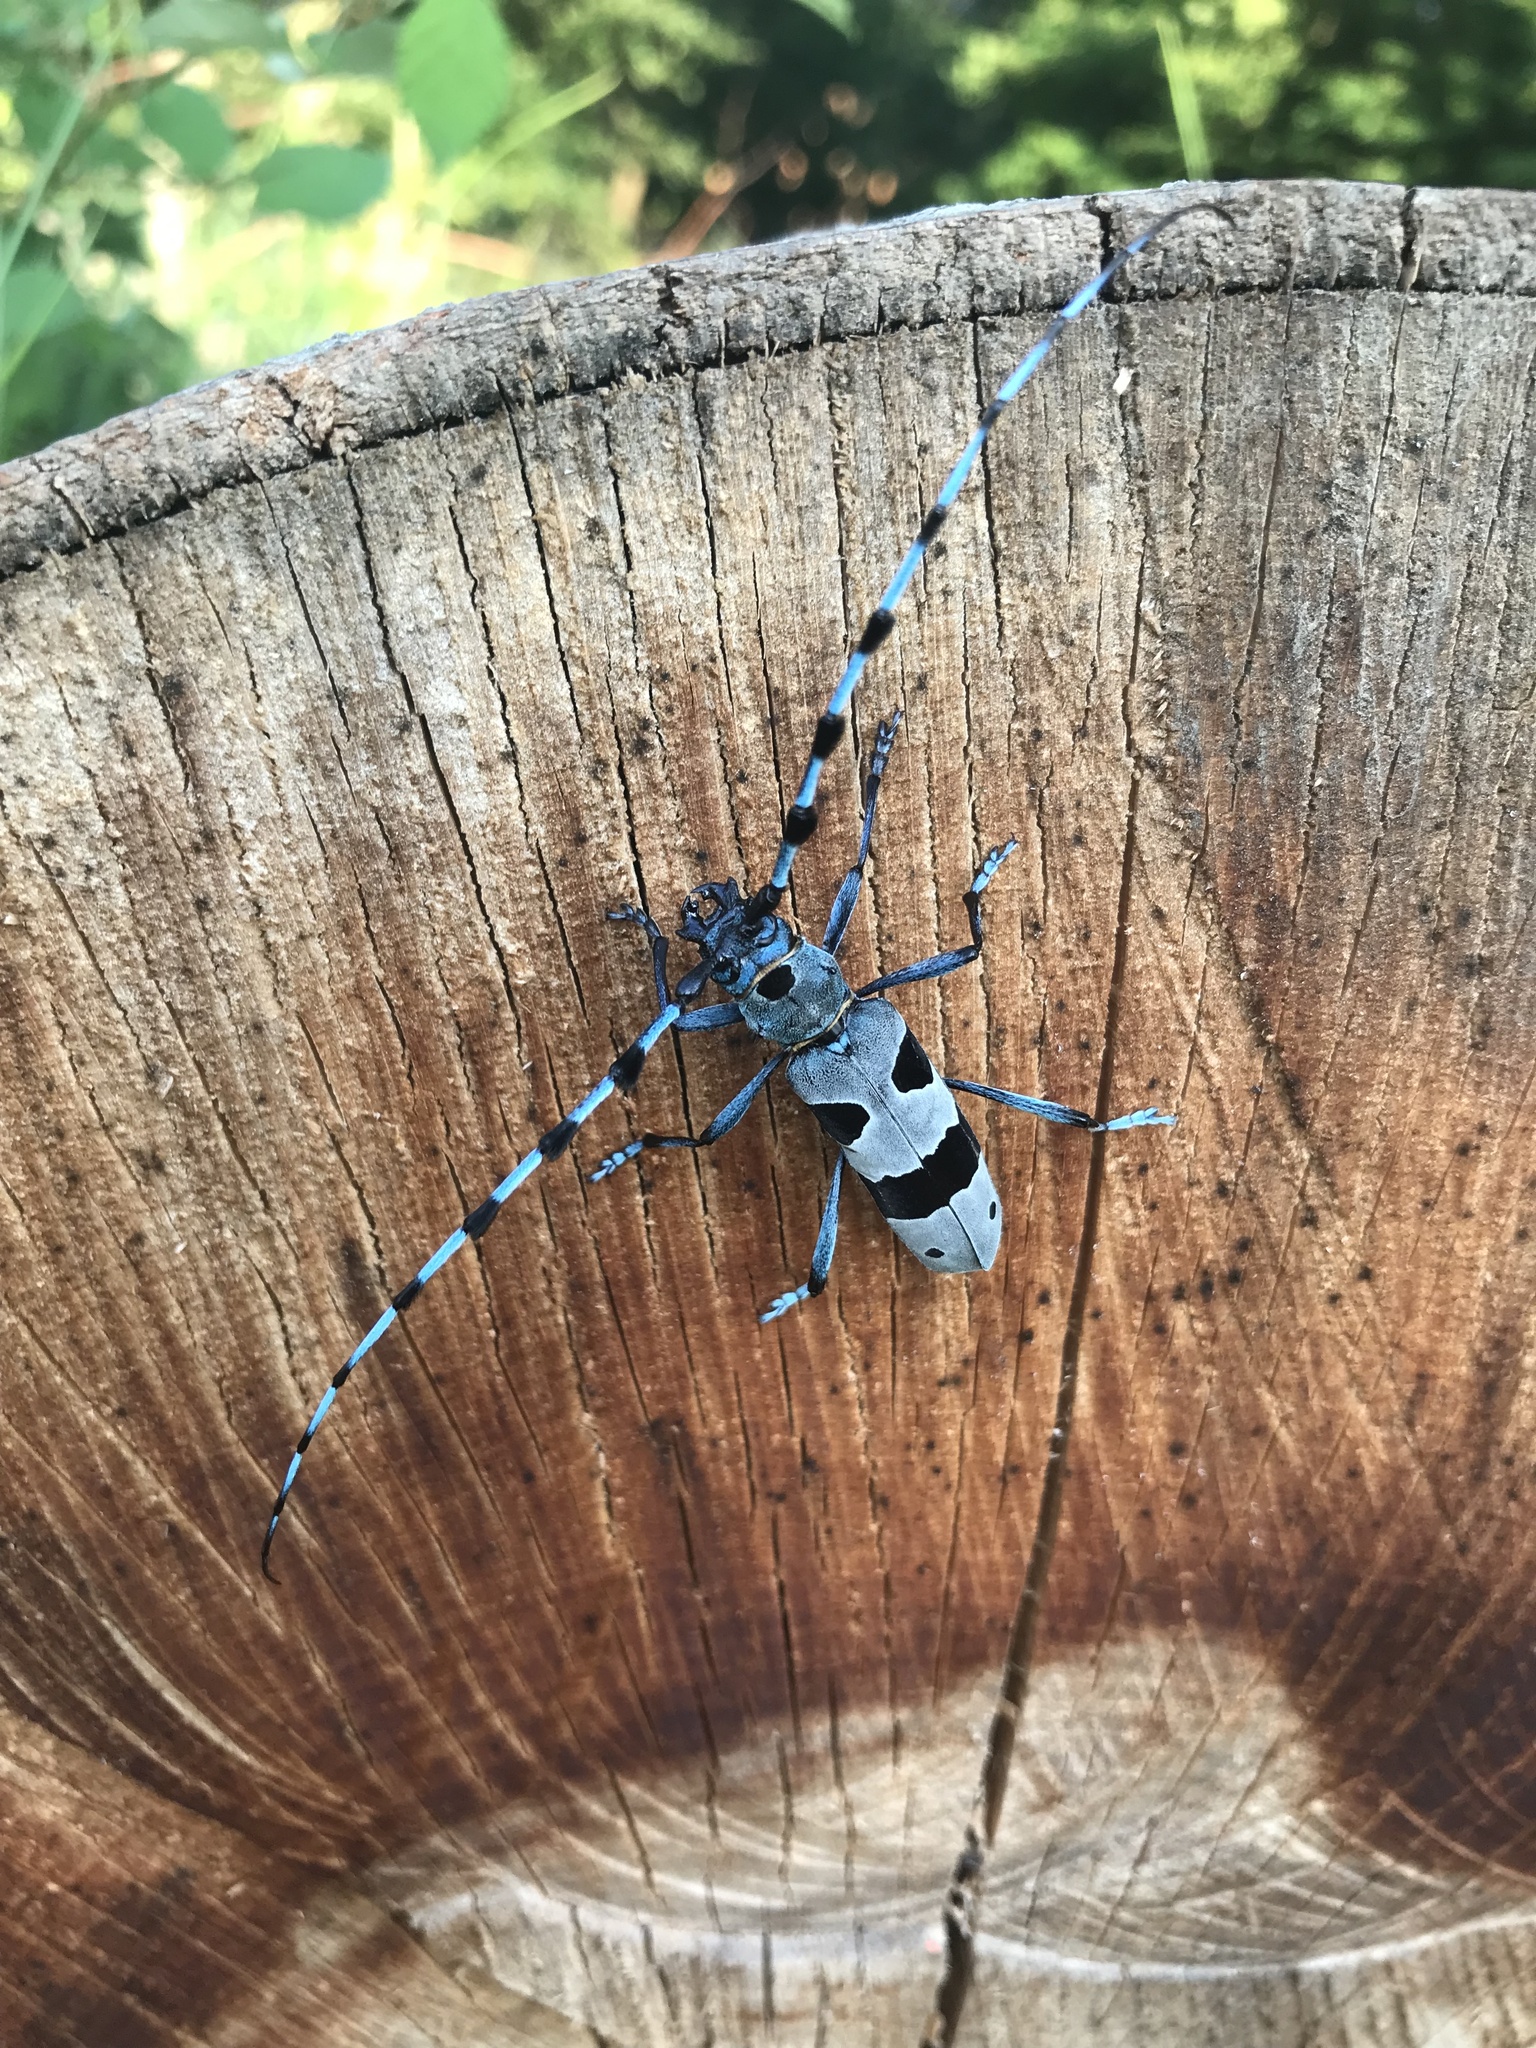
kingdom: Animalia
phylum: Arthropoda
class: Insecta
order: Coleoptera
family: Cerambycidae
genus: Rosalia
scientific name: Rosalia alpina
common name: Rosalia longicorn
